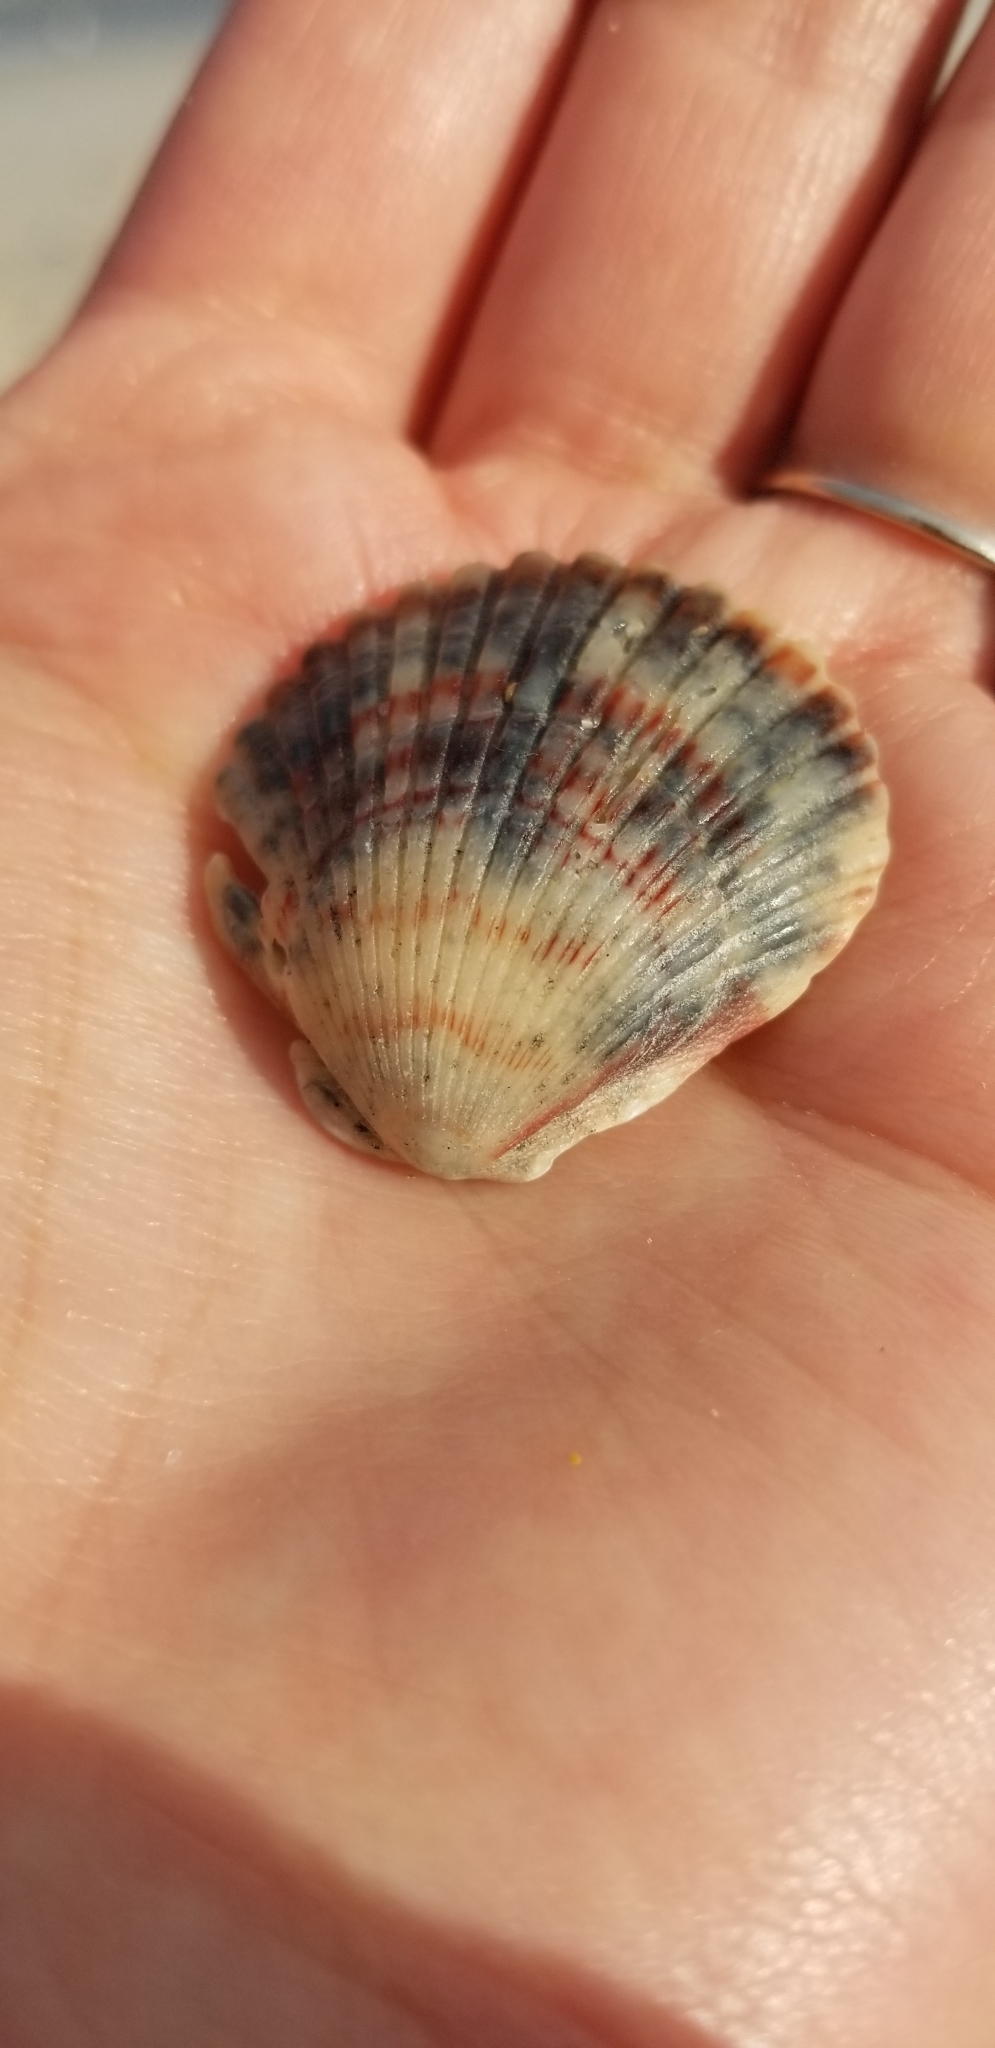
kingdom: Animalia
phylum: Mollusca
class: Bivalvia
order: Pectinida
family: Pectinidae
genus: Argopecten
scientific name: Argopecten gibbus
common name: Atlantic calico scallop
